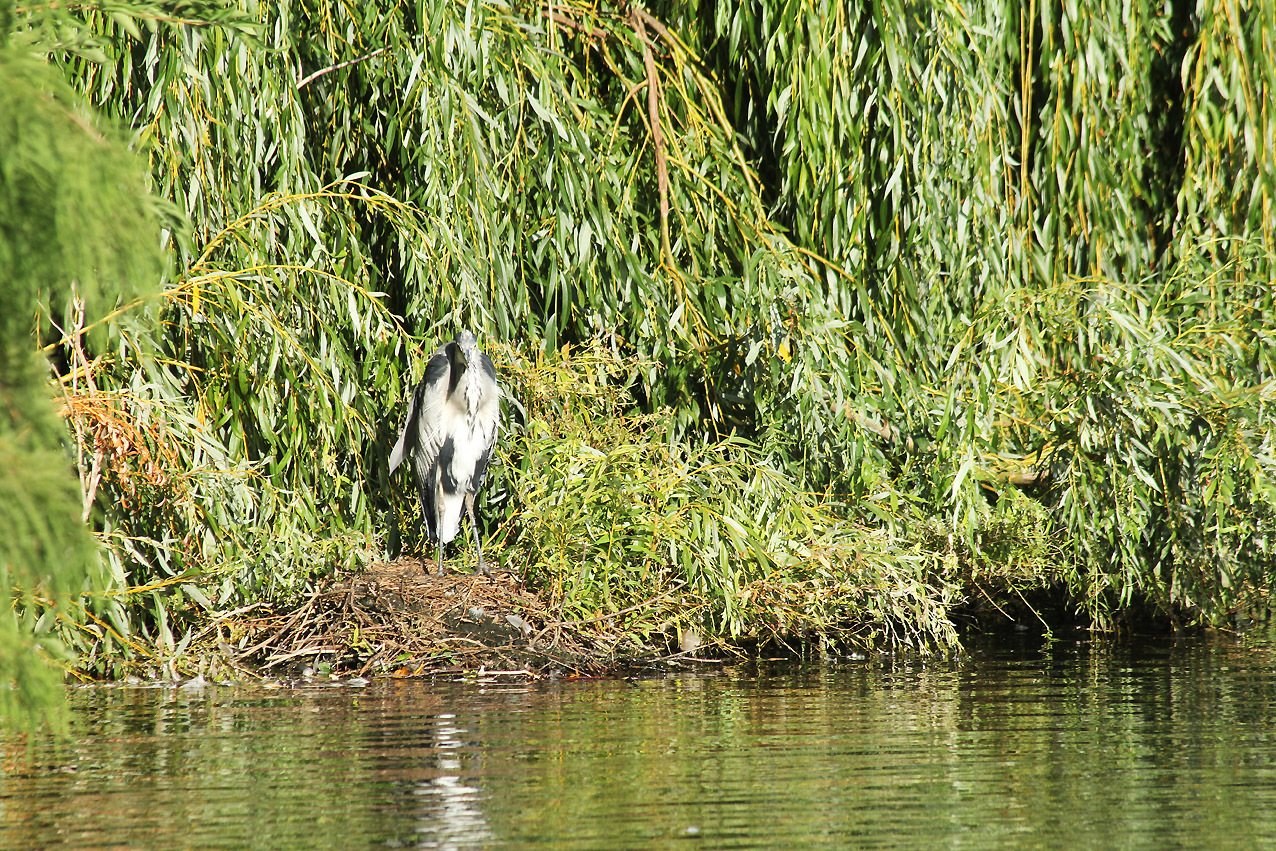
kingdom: Animalia
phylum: Chordata
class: Aves
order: Pelecaniformes
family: Ardeidae
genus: Ardea
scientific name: Ardea cinerea
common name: Grey heron
